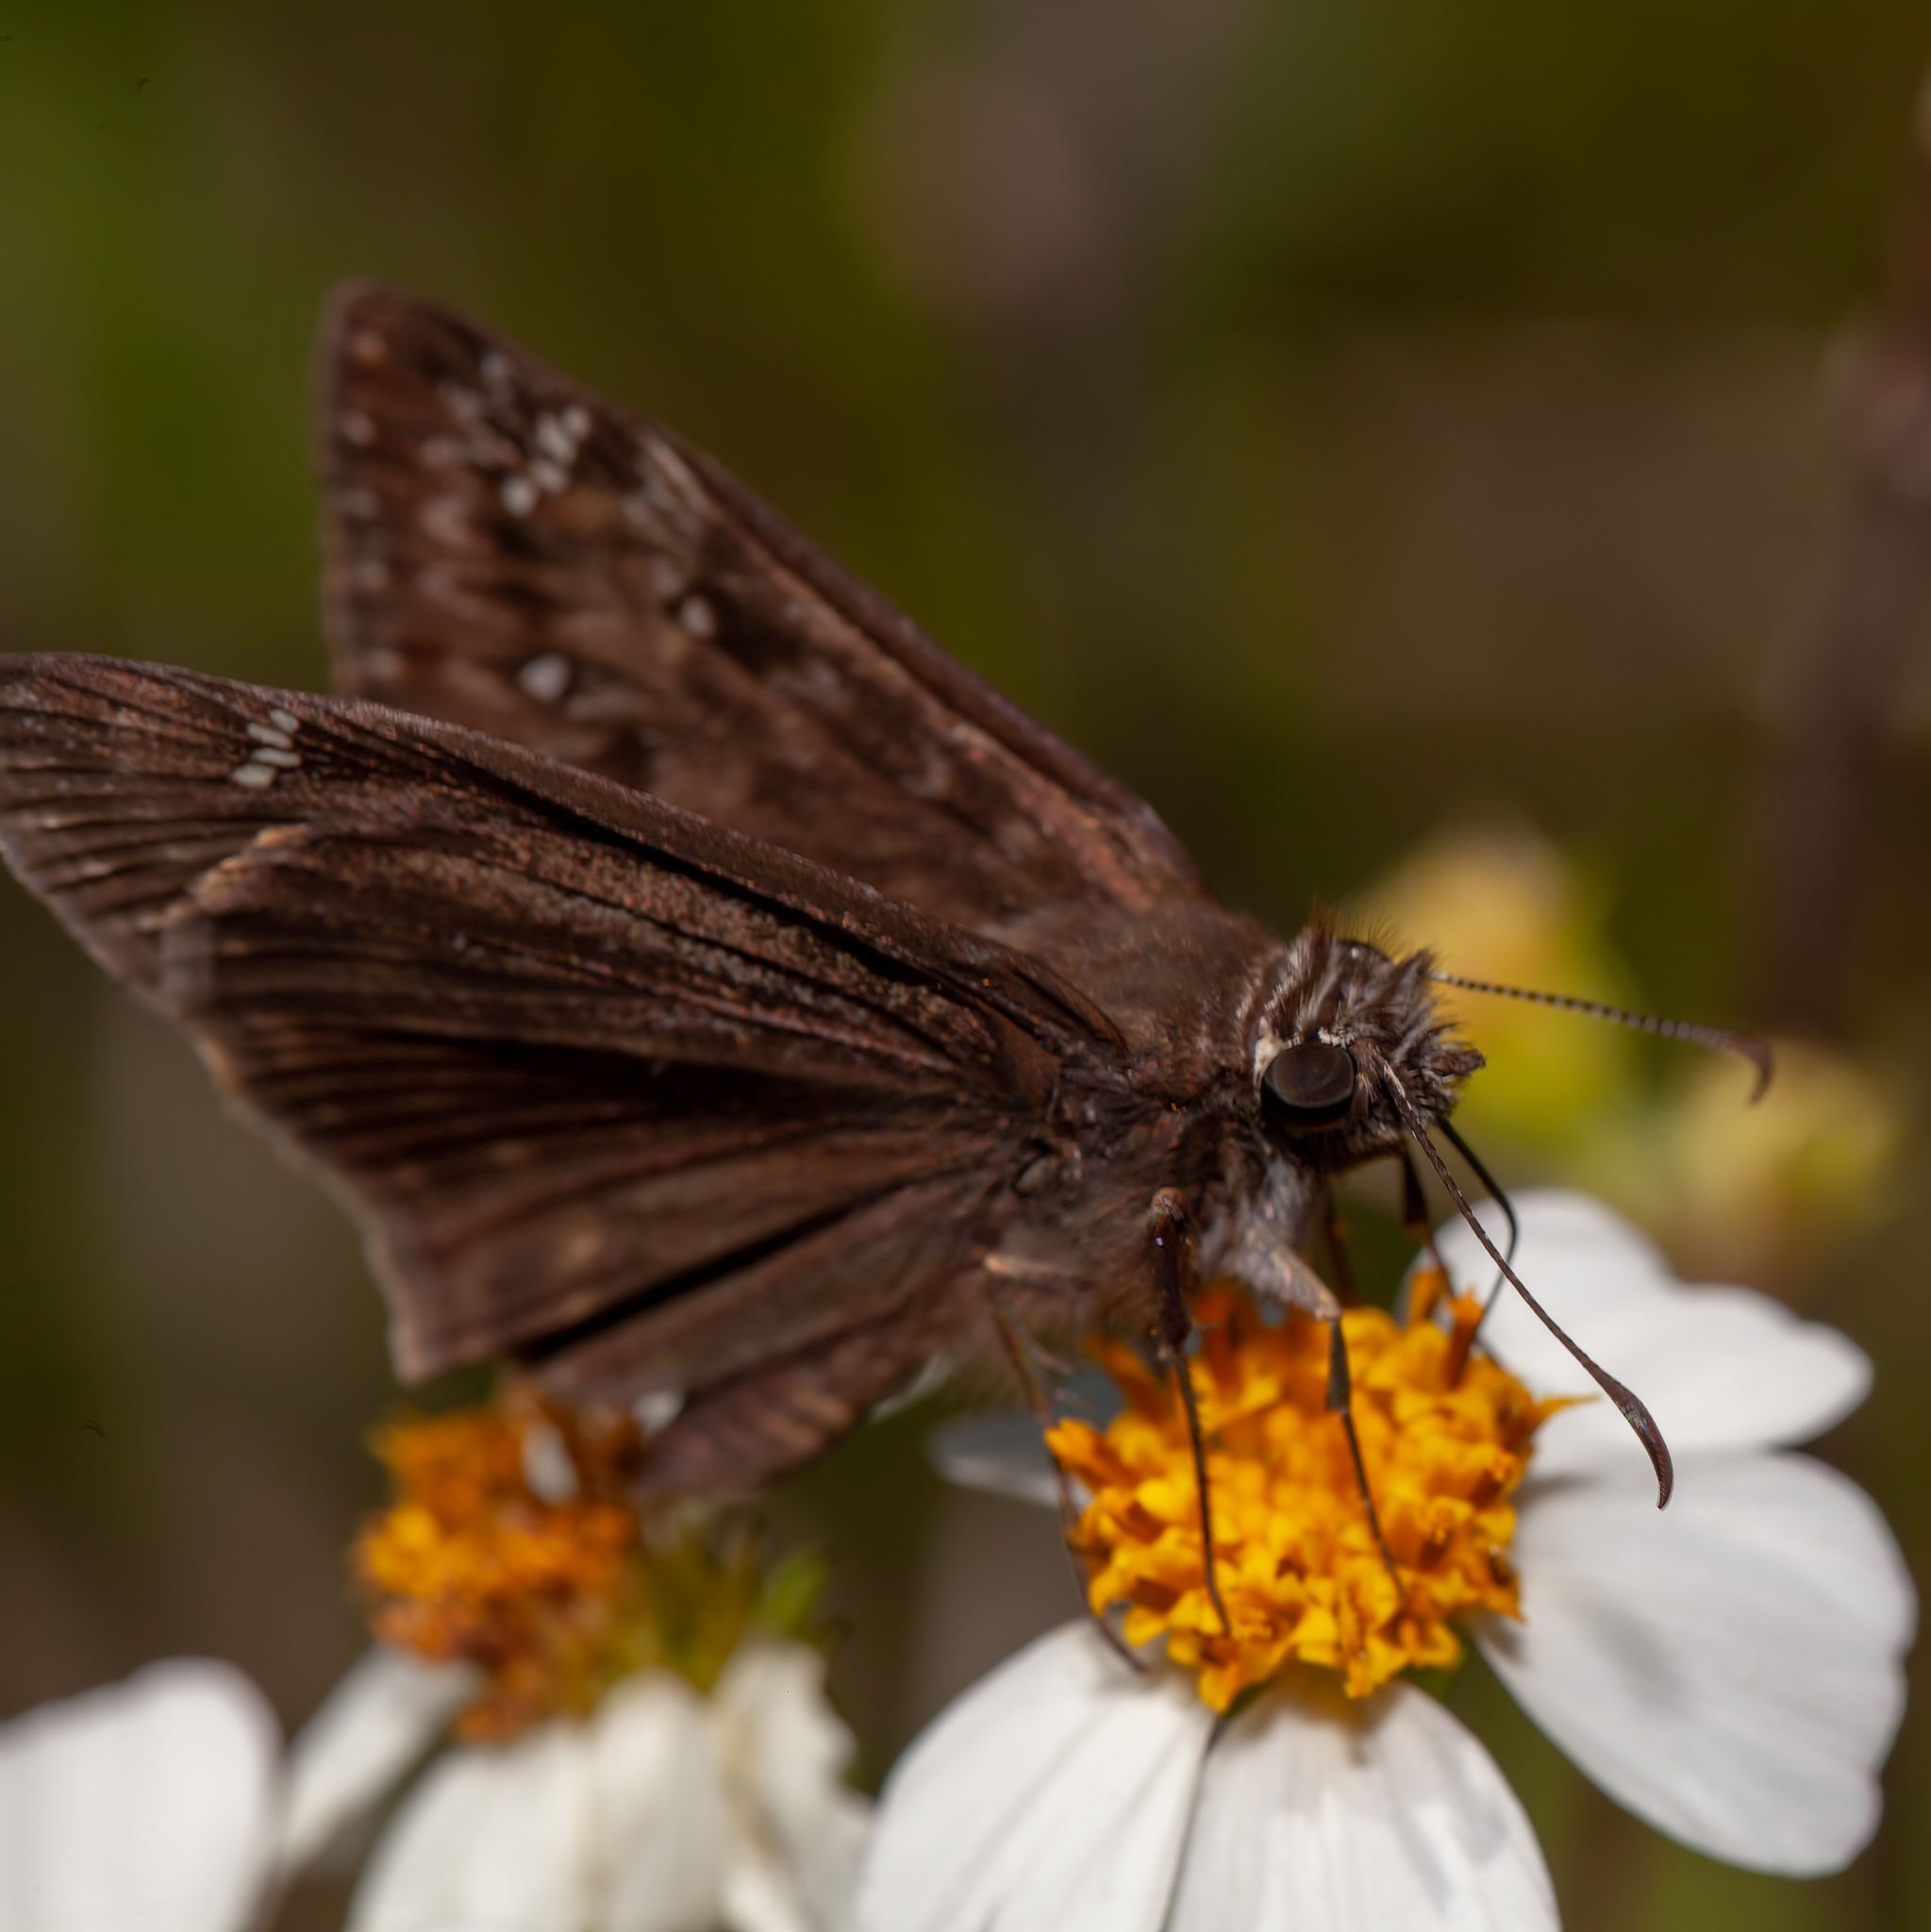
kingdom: Animalia
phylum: Arthropoda
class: Insecta
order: Lepidoptera
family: Hesperiidae
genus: Erynnis
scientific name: Erynnis horatius
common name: Horace's duskywing
